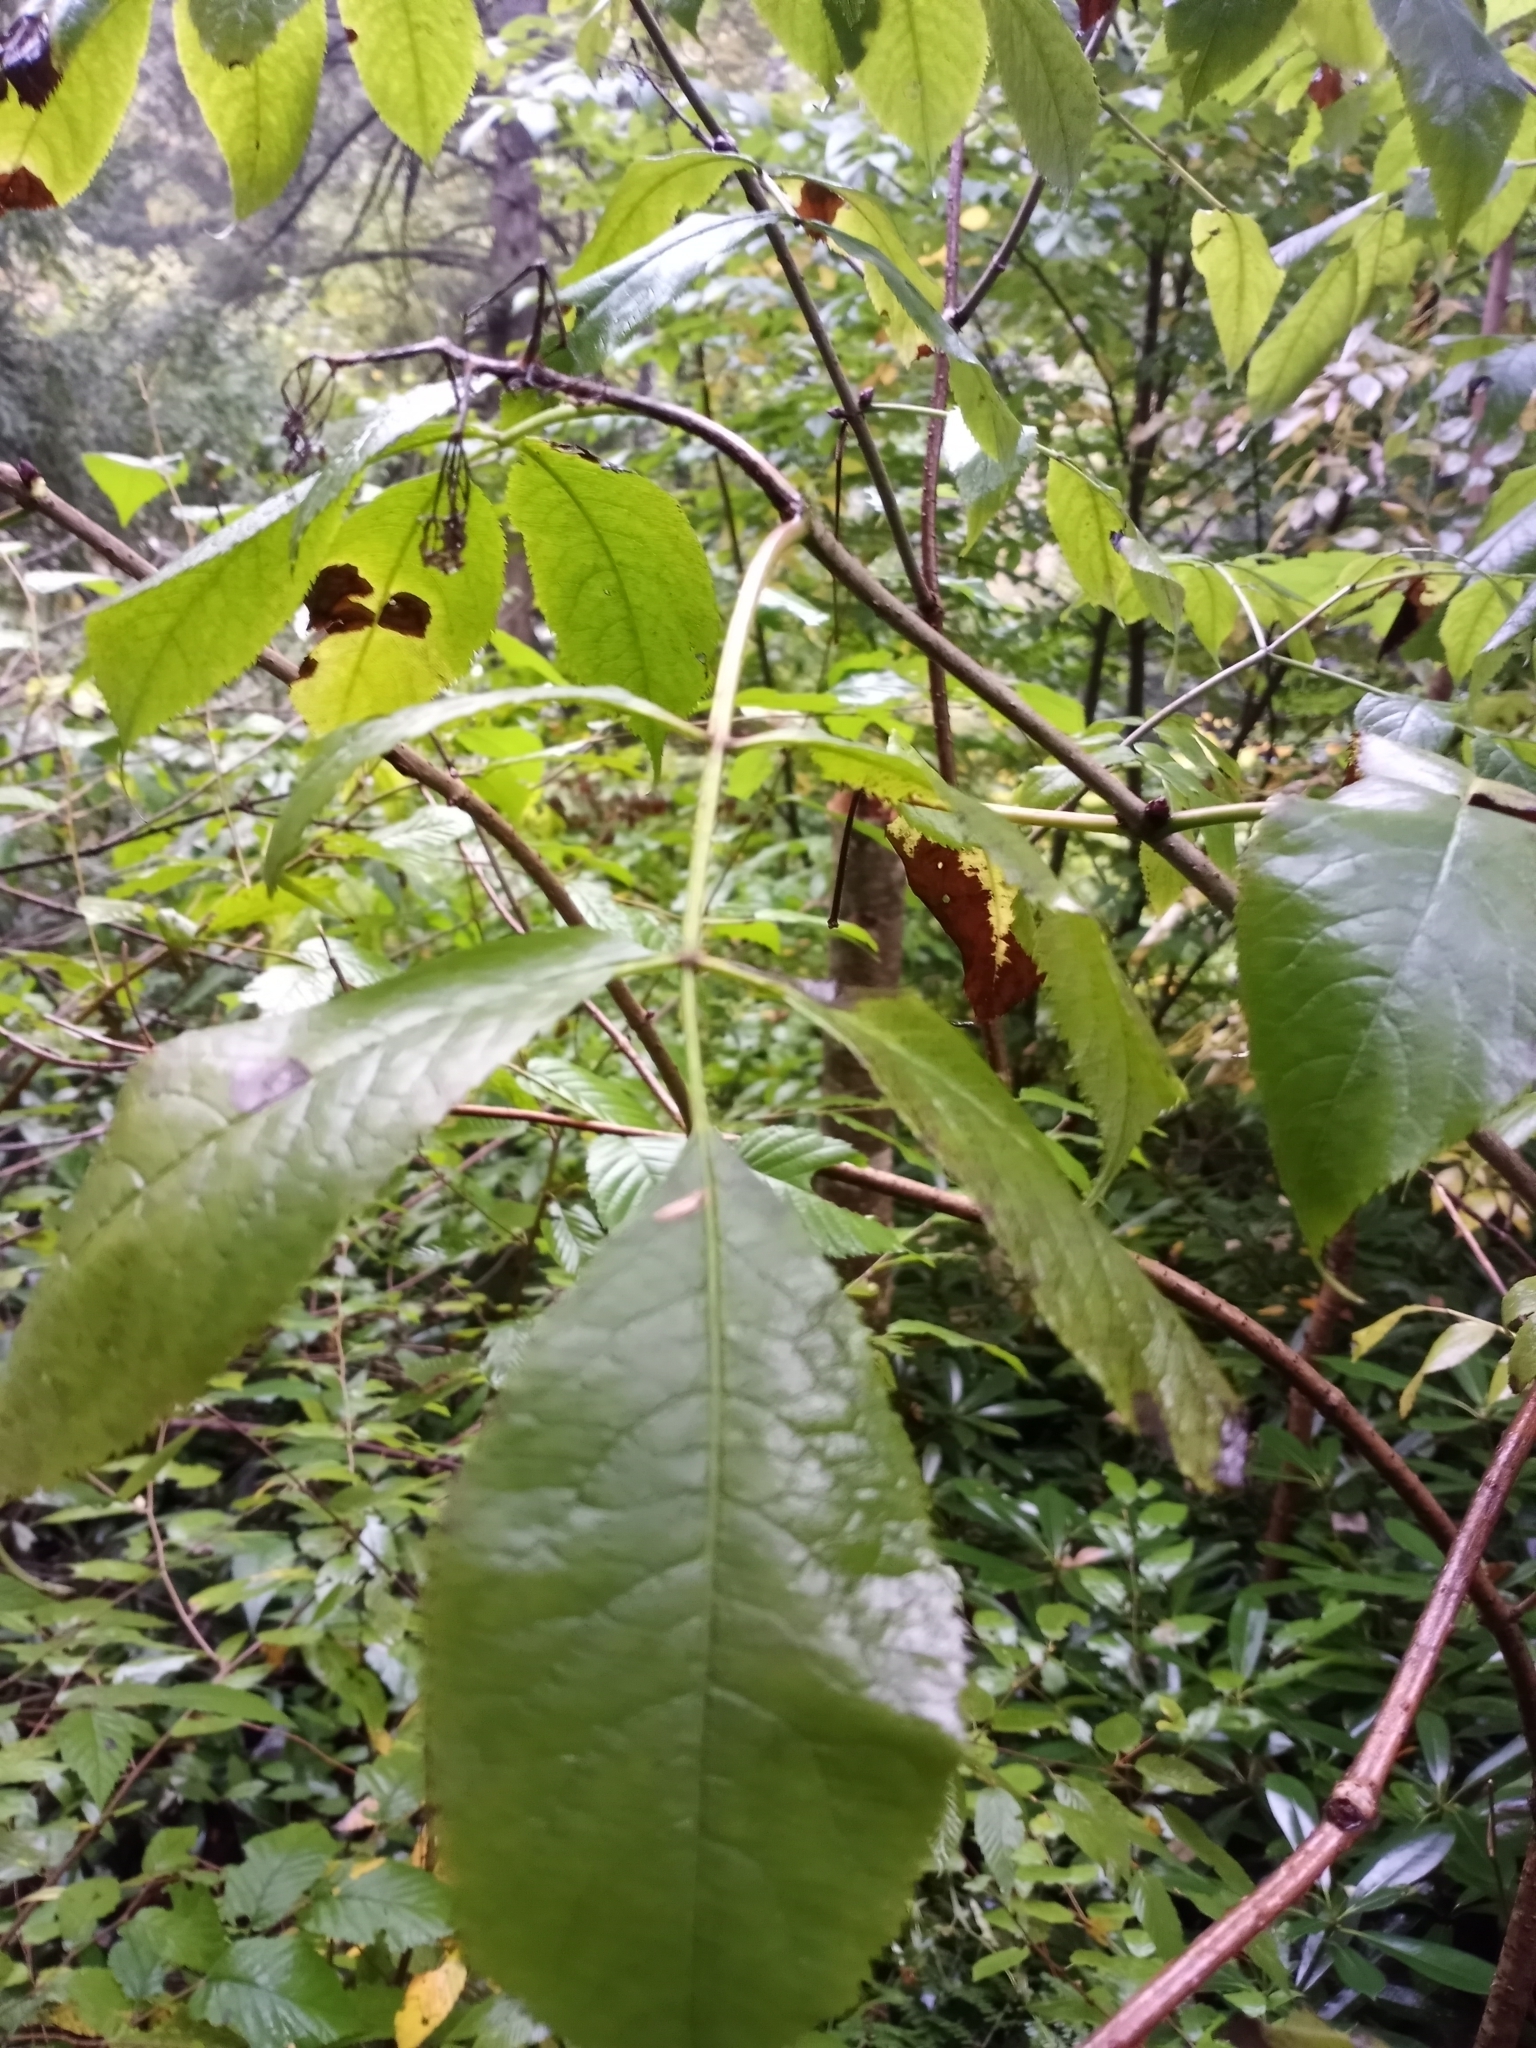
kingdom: Plantae
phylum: Tracheophyta
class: Magnoliopsida
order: Dipsacales
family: Viburnaceae
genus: Sambucus
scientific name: Sambucus racemosa
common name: Red-berried elder
